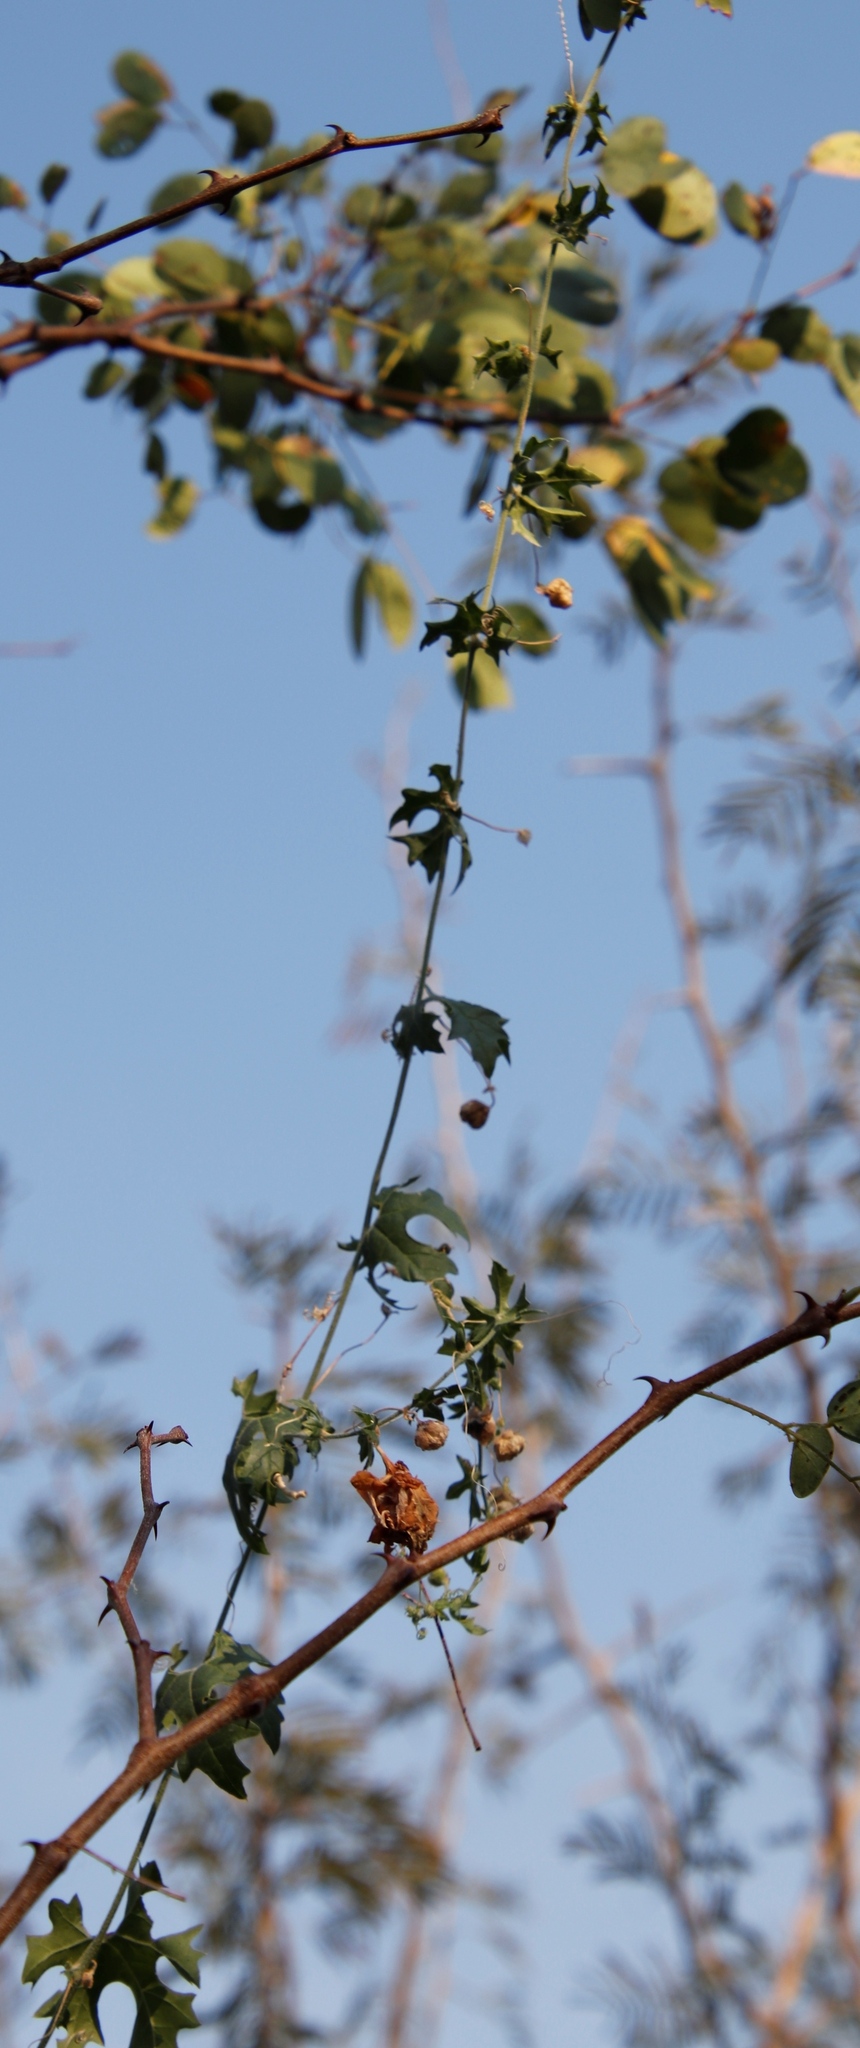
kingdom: Plantae
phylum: Tracheophyta
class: Magnoliopsida
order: Cucurbitales
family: Cucurbitaceae
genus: Momordica
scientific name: Momordica balsamina
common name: Southern balsampear
